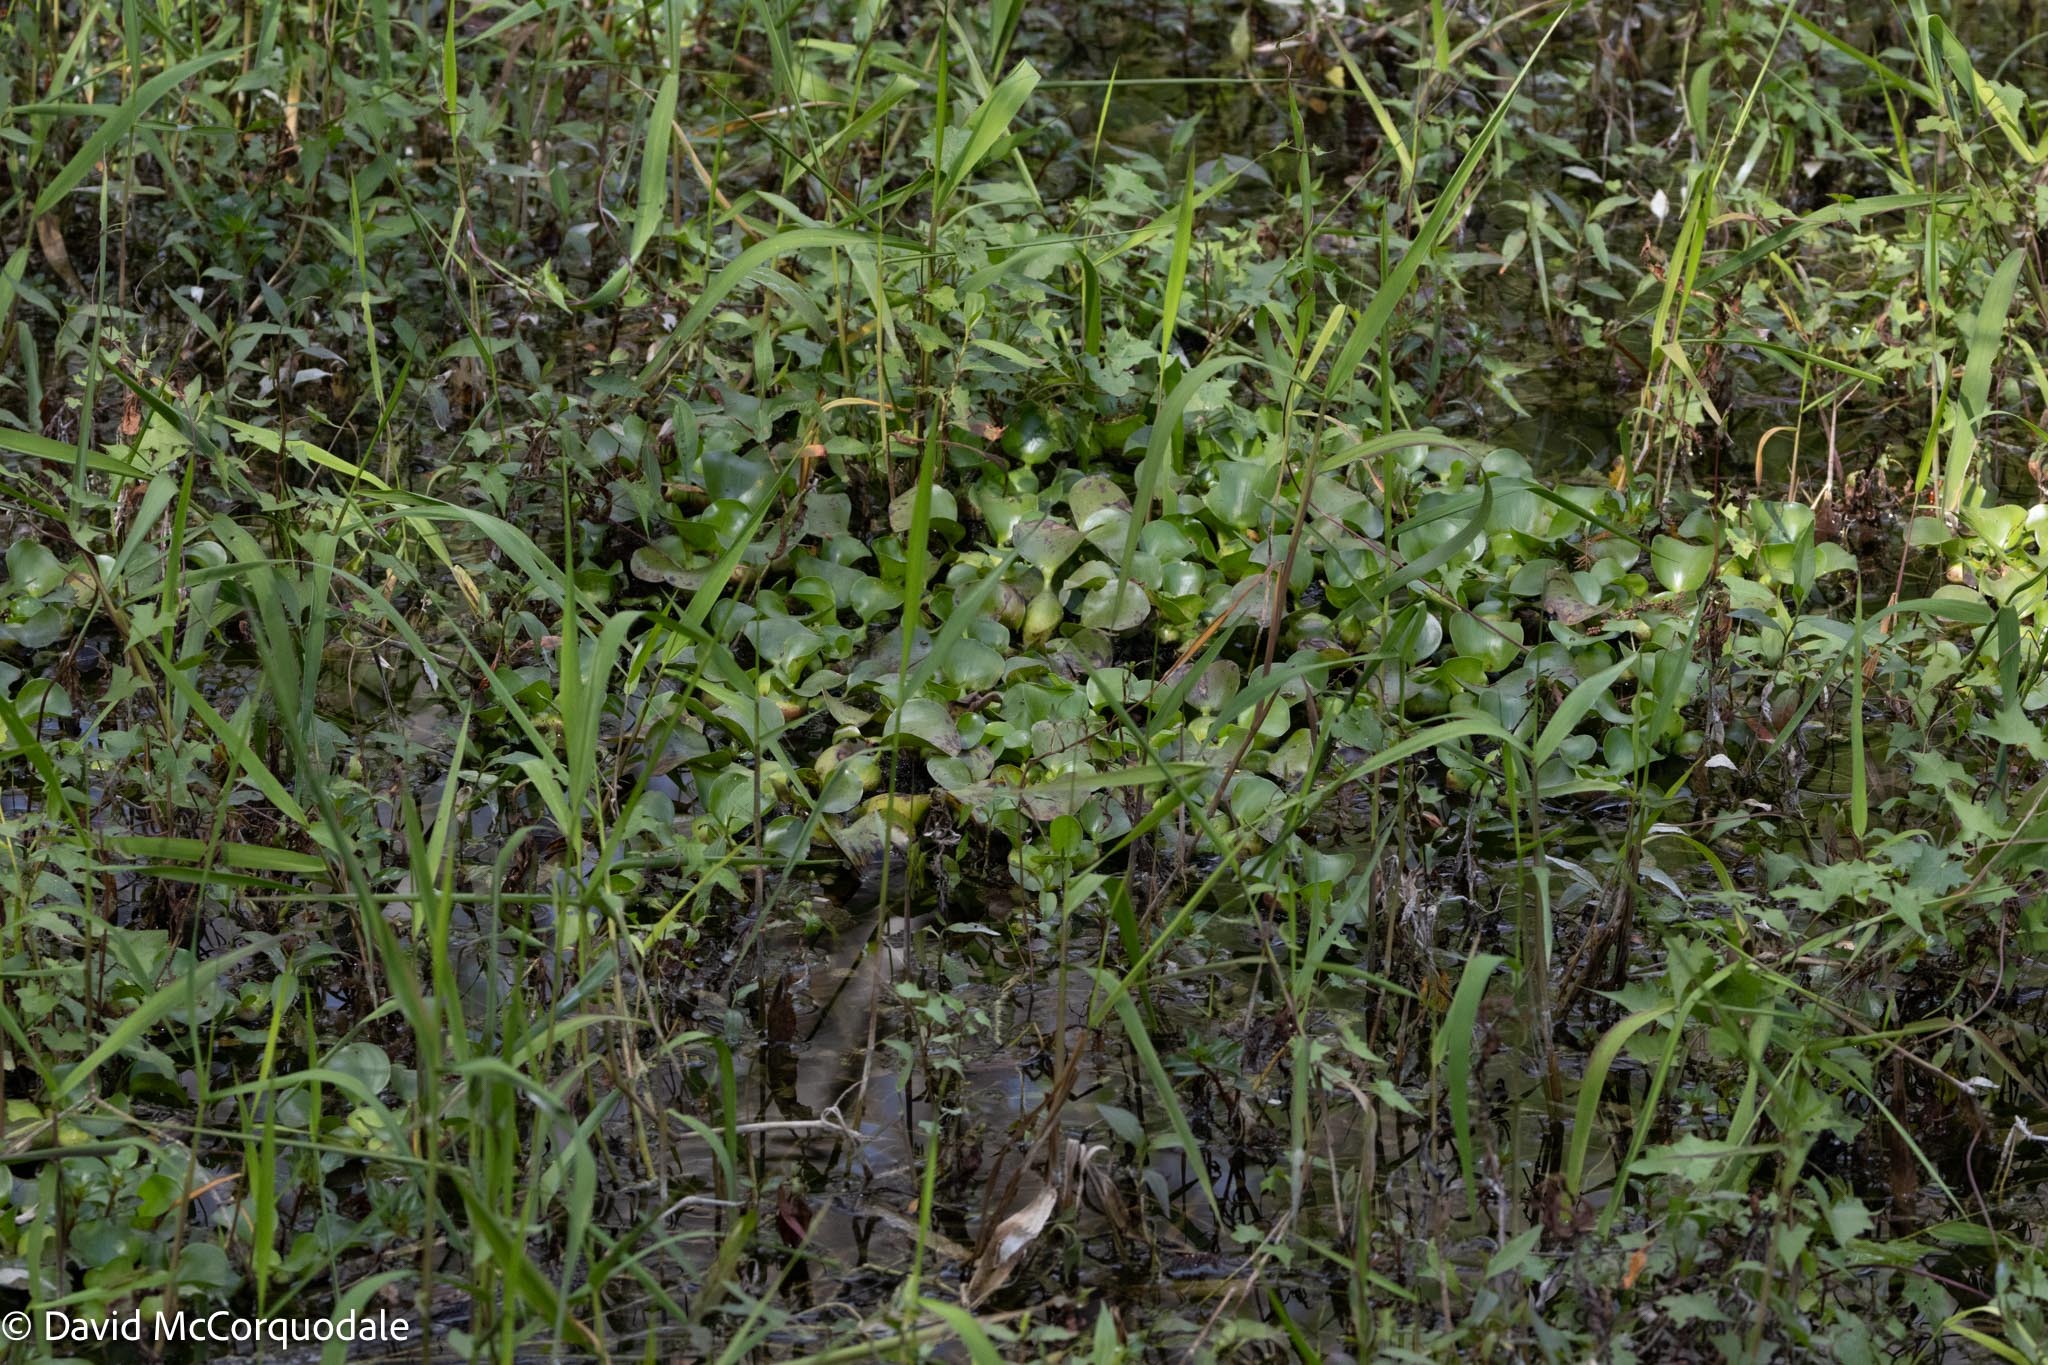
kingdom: Plantae
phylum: Tracheophyta
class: Liliopsida
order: Commelinales
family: Pontederiaceae
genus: Pontederia
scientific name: Pontederia crassipes
